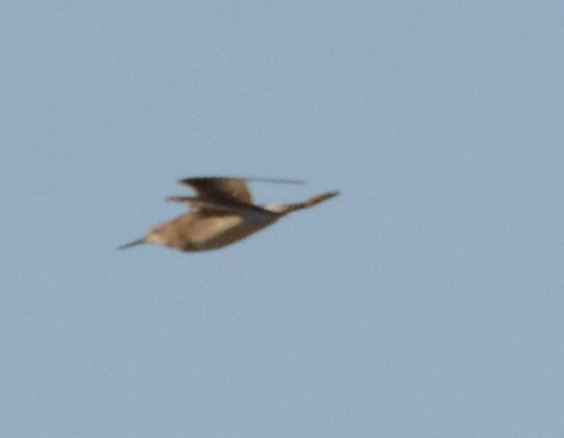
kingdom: Animalia
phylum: Chordata
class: Aves
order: Charadriiformes
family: Scolopacidae
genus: Tringa
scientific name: Tringa stagnatilis
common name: Marsh sandpiper
